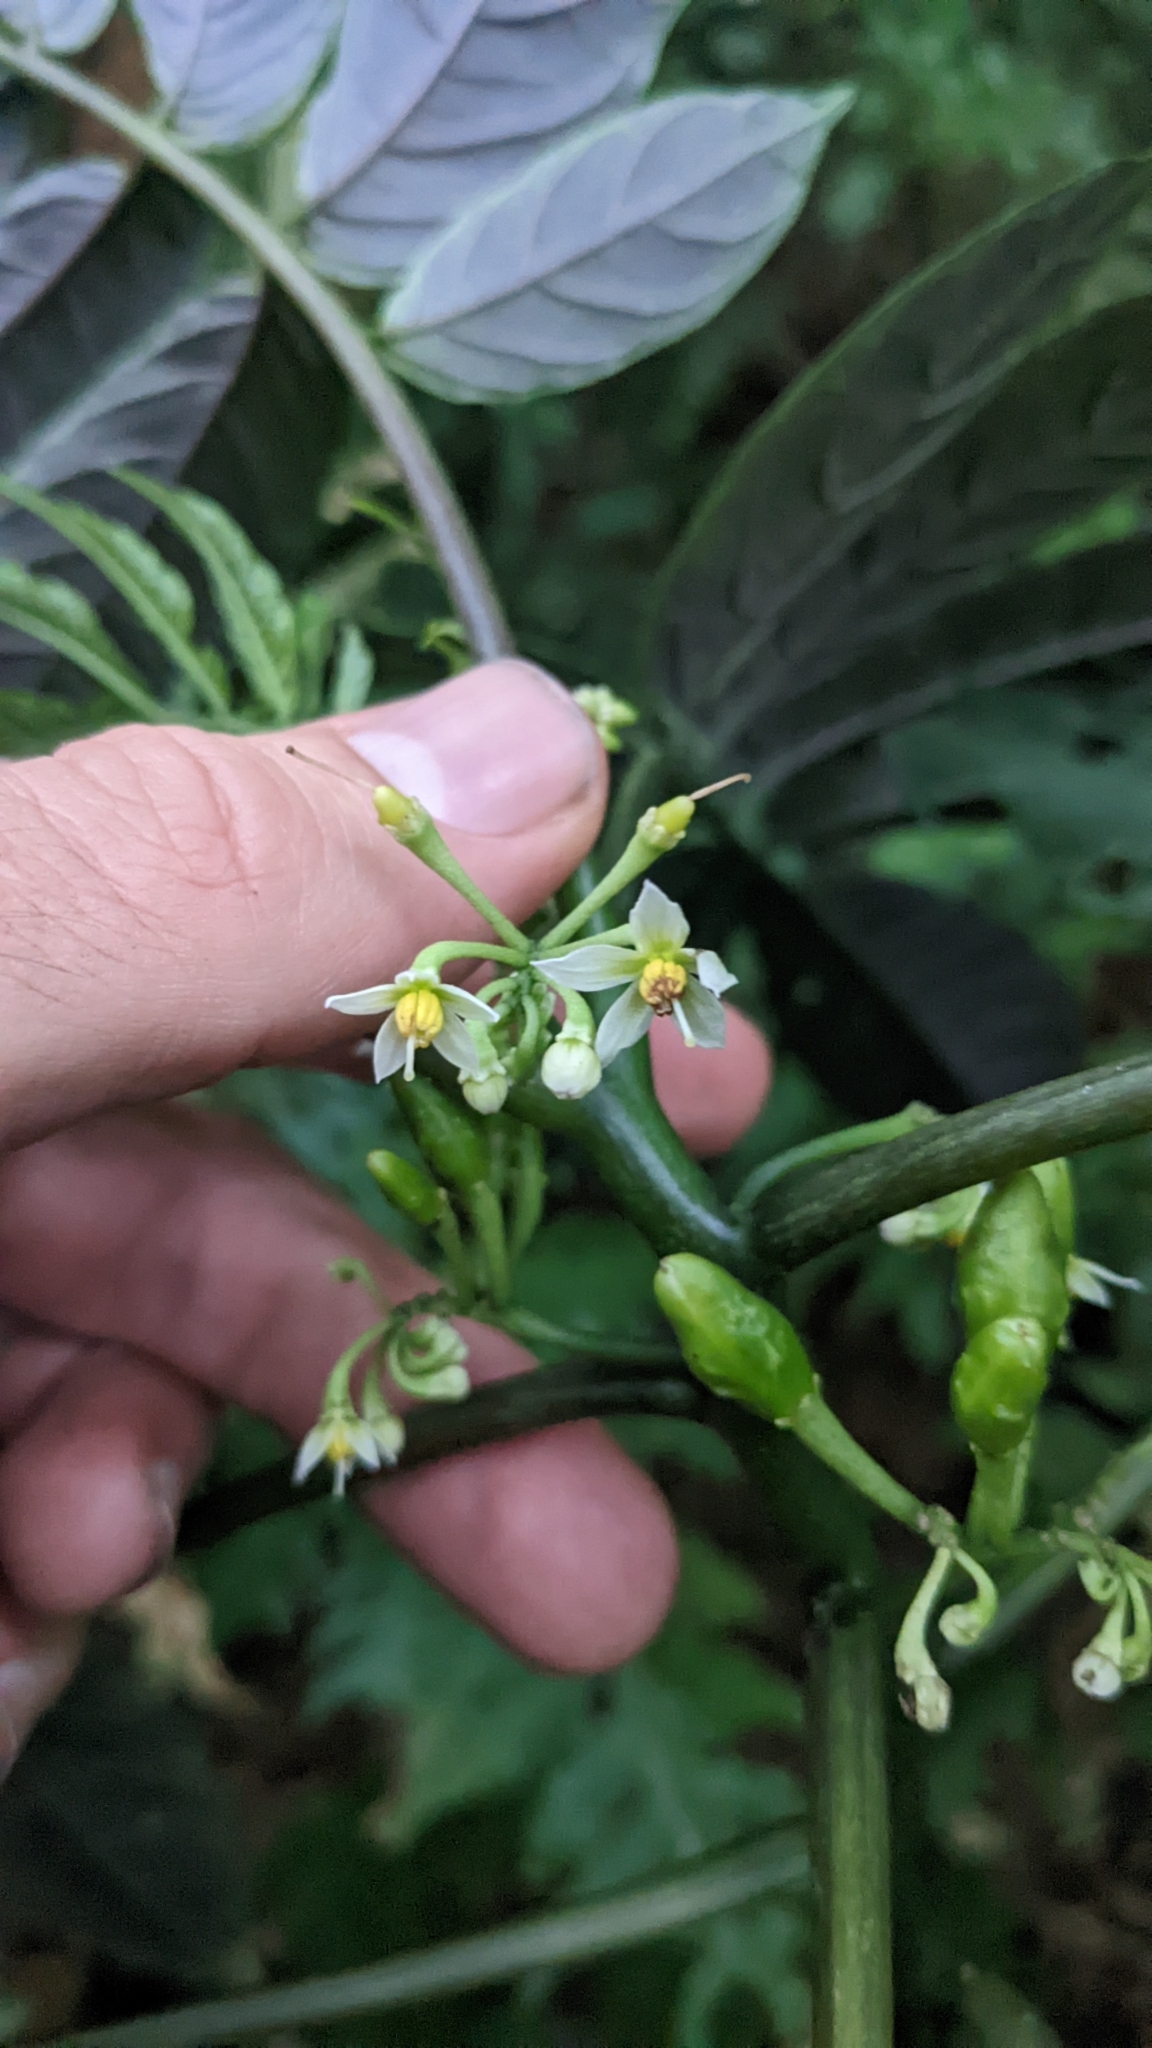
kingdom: Plantae
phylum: Tracheophyta
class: Magnoliopsida
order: Solanales
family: Solanaceae
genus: Solanum
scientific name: Solanum trizygum
